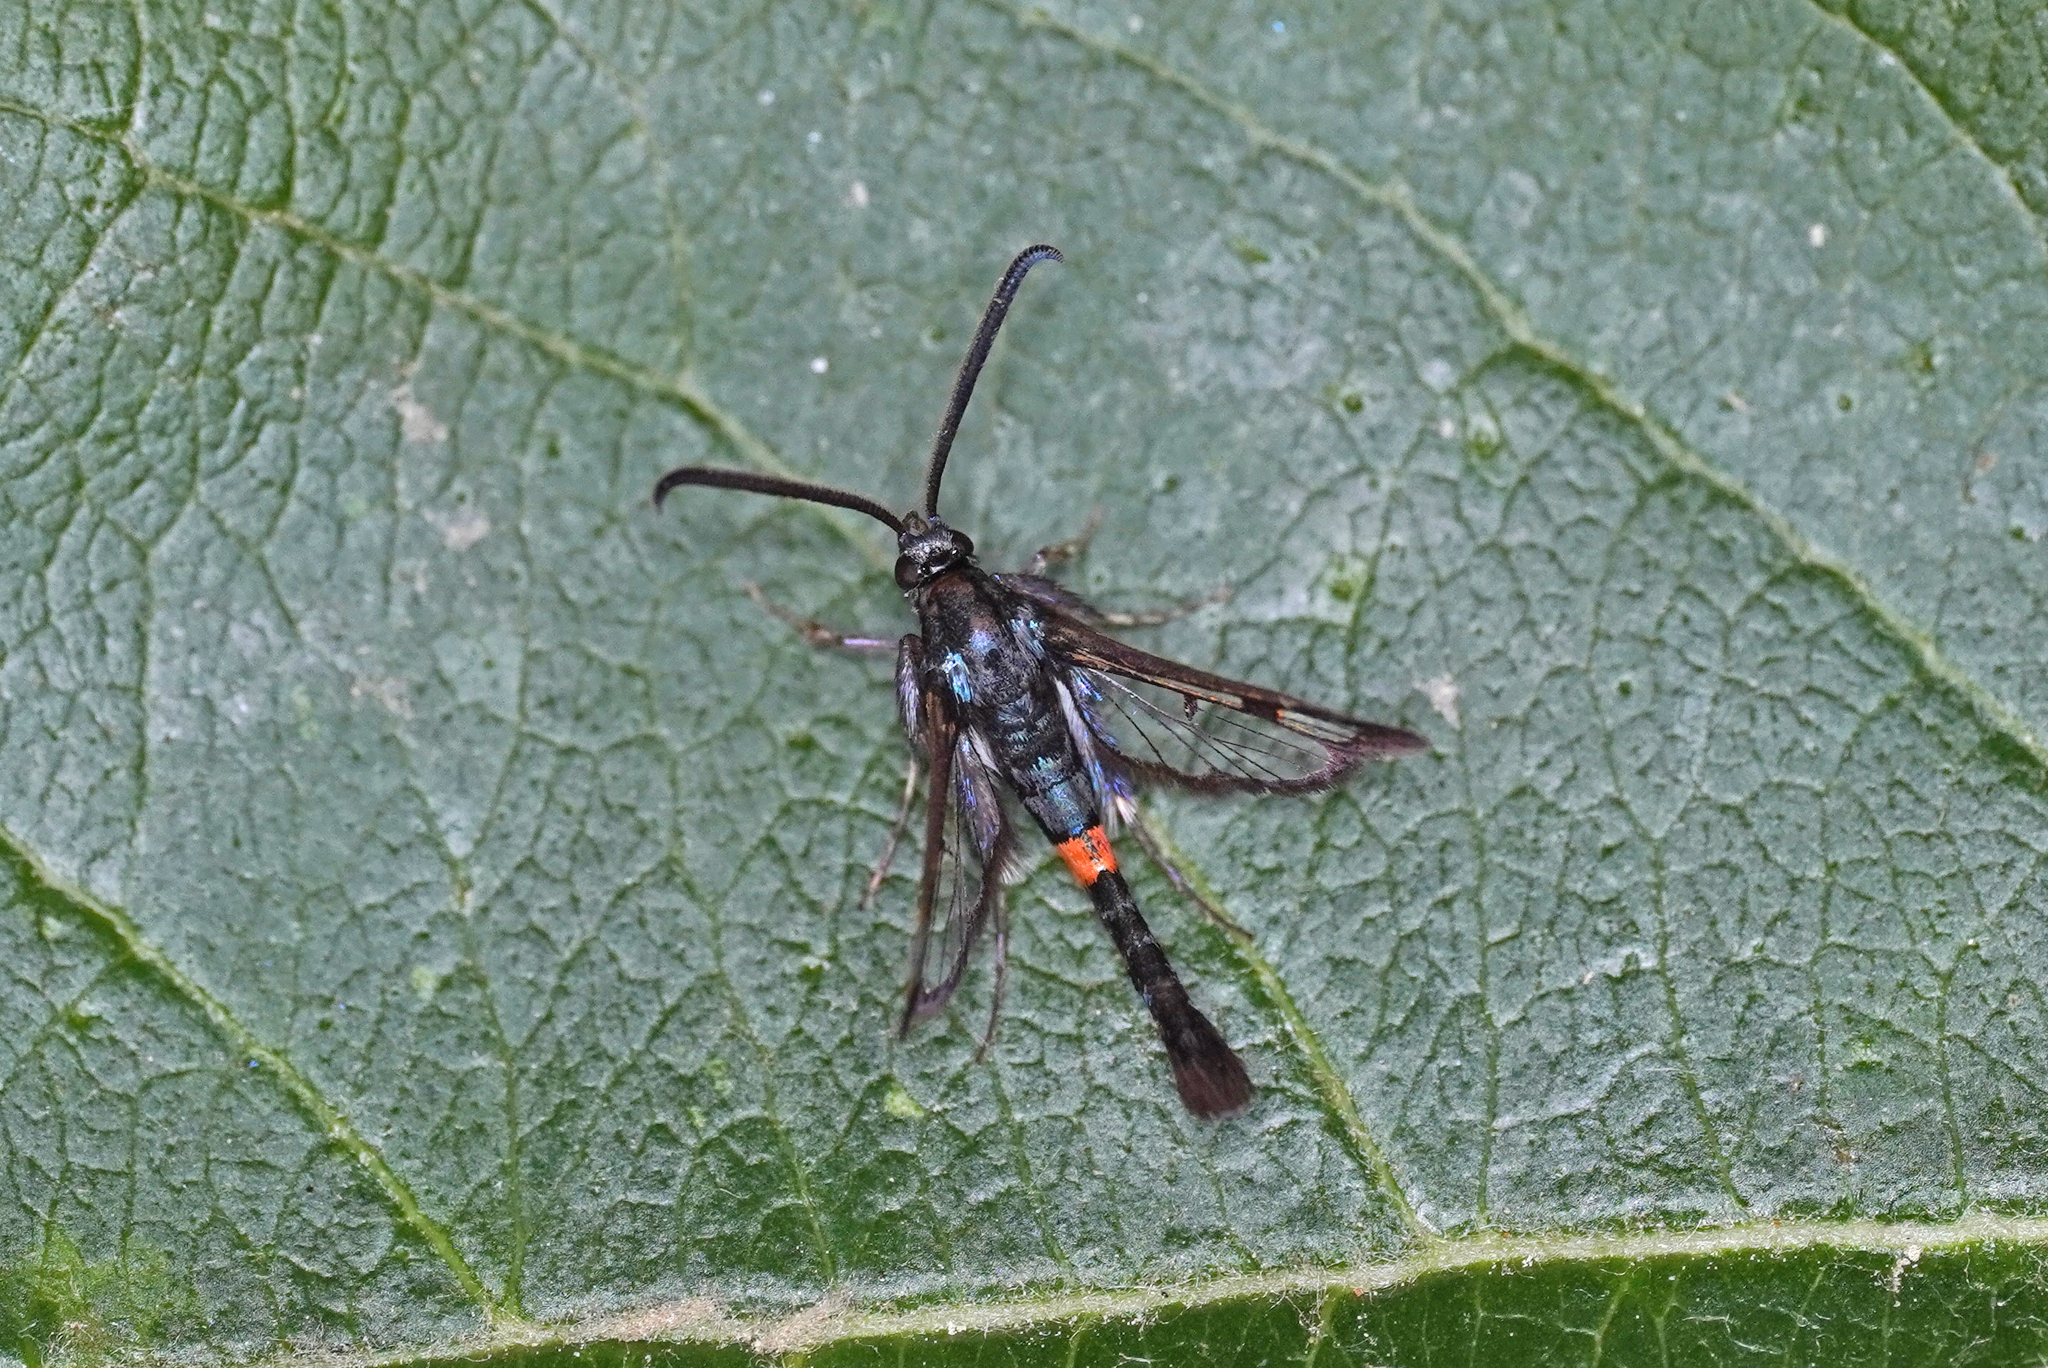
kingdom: Animalia
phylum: Arthropoda
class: Insecta
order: Lepidoptera
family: Sesiidae
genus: Synanthedon
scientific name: Synanthedon myopaeformis
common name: Red-belted clearwing
